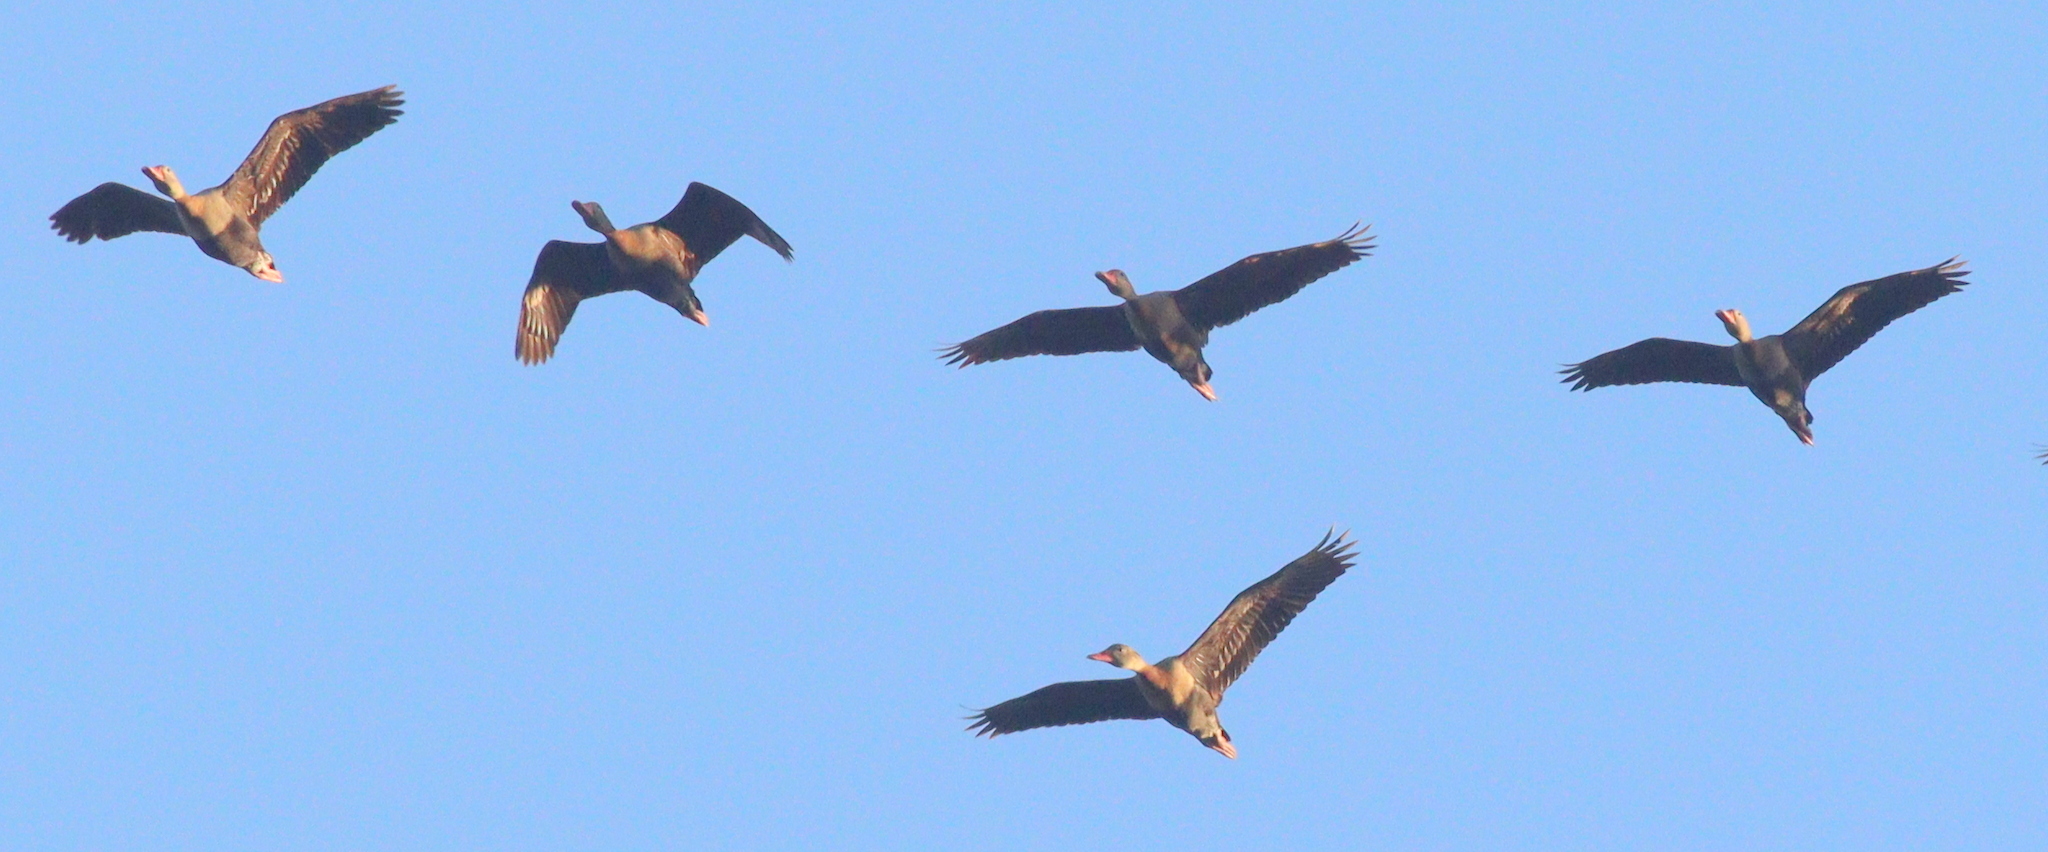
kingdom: Animalia
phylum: Chordata
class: Aves
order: Anseriformes
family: Anatidae
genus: Dendrocygna
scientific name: Dendrocygna autumnalis
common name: Black-bellied whistling duck
